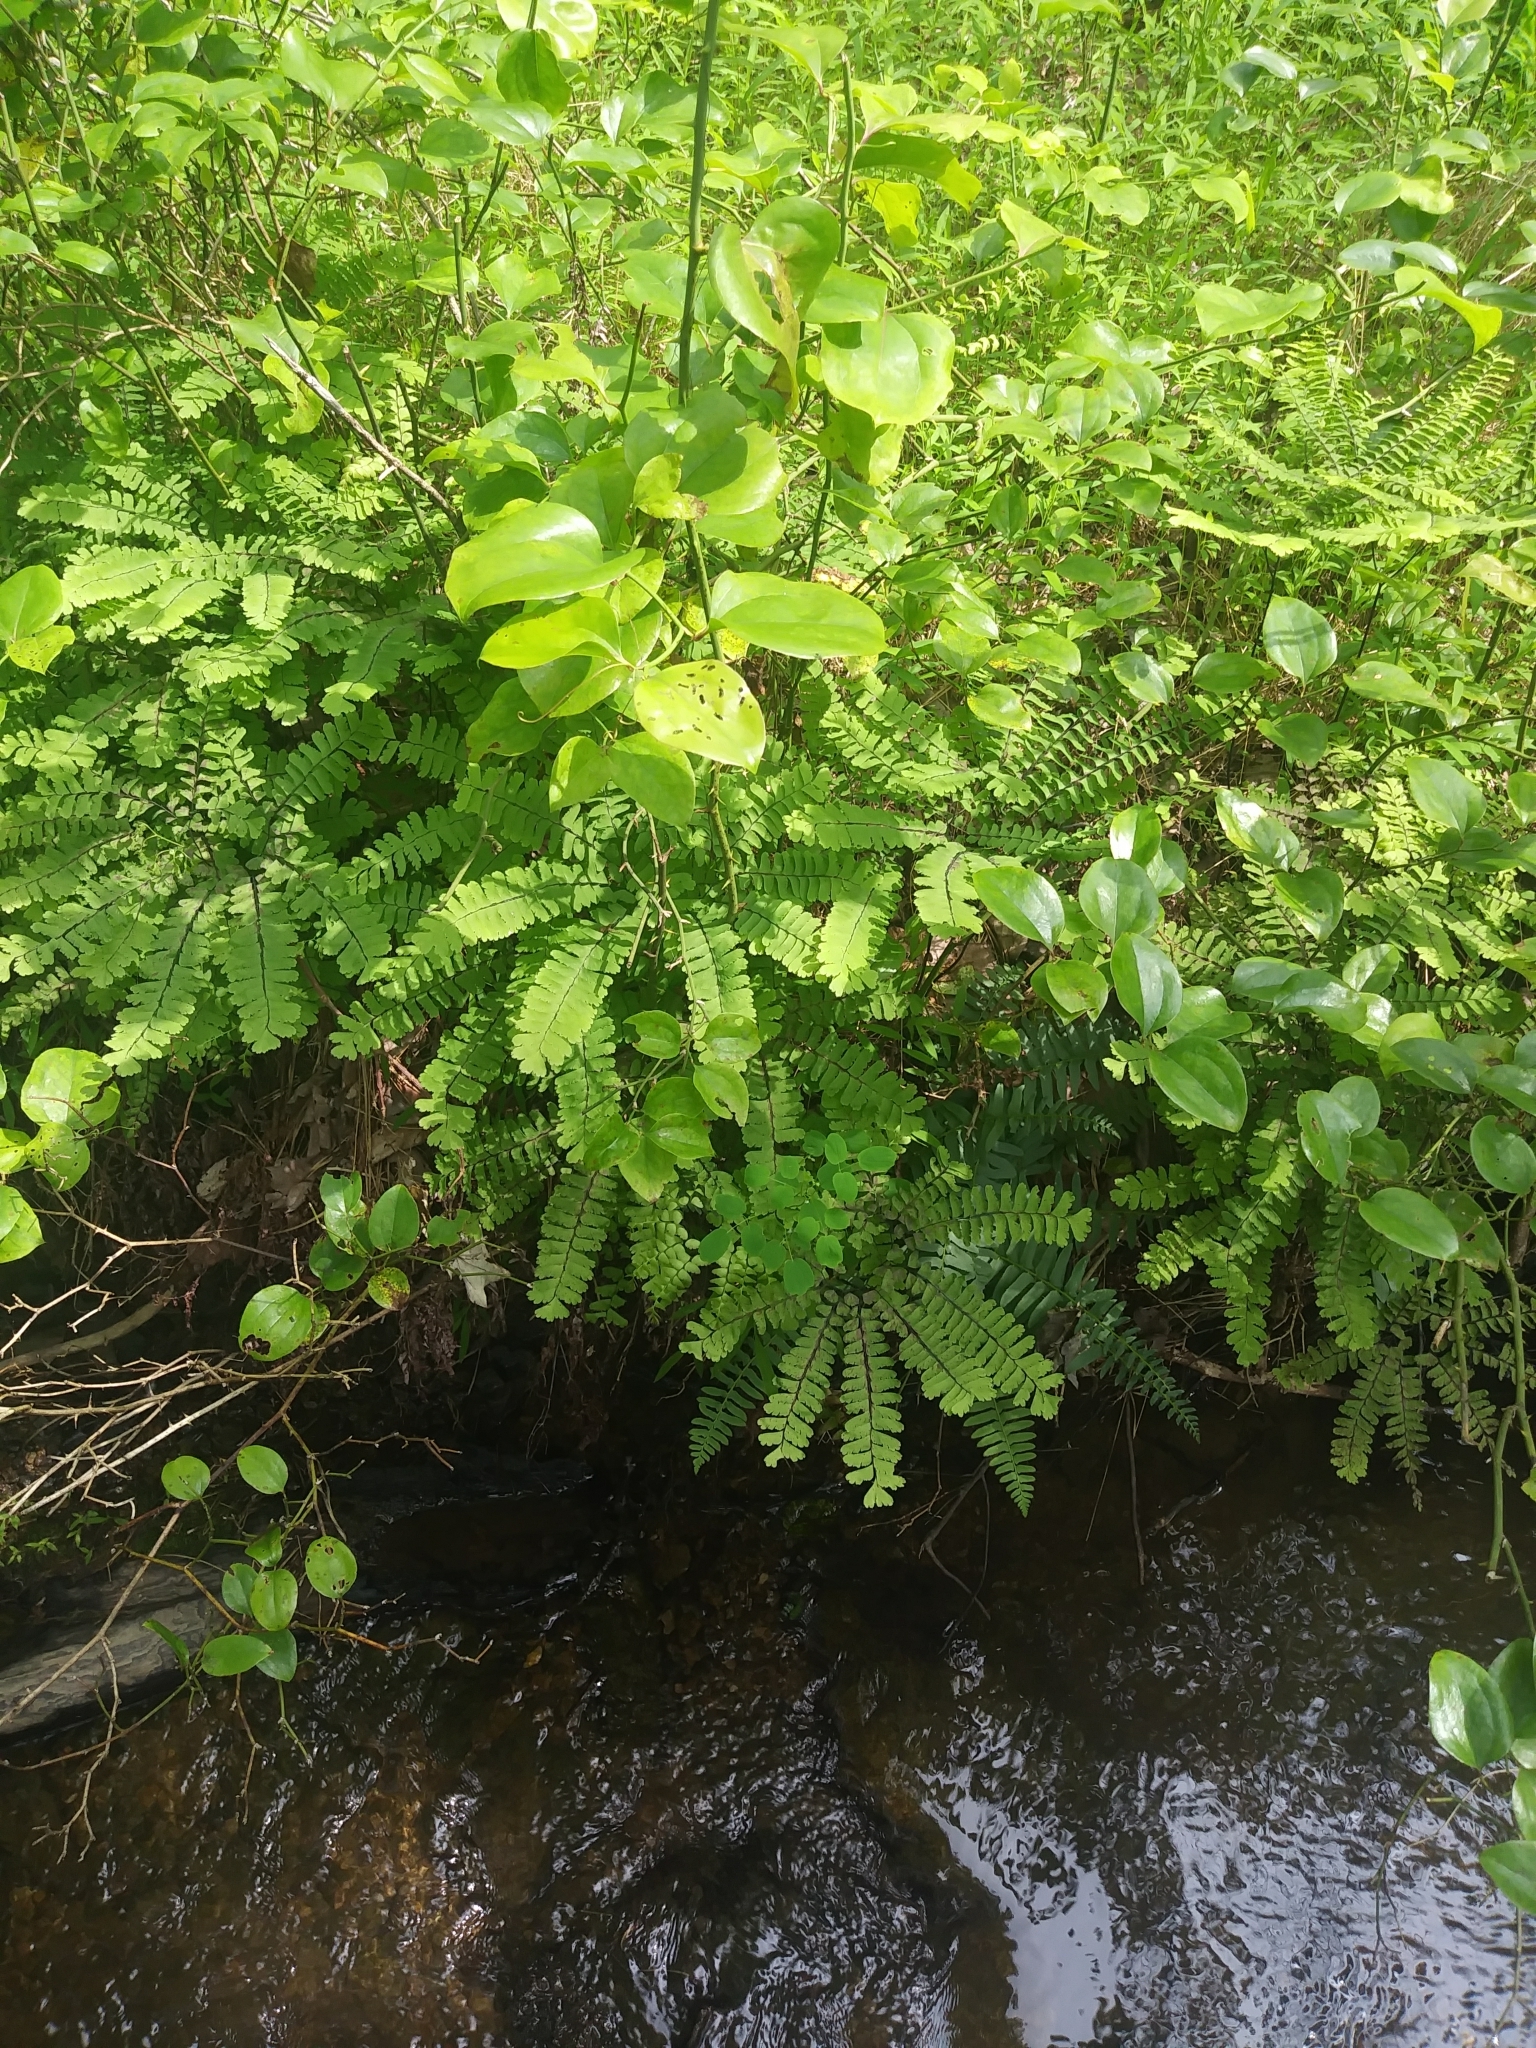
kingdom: Plantae
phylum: Tracheophyta
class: Polypodiopsida
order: Polypodiales
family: Pteridaceae
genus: Adiantum
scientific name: Adiantum pedatum
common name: Five-finger fern
